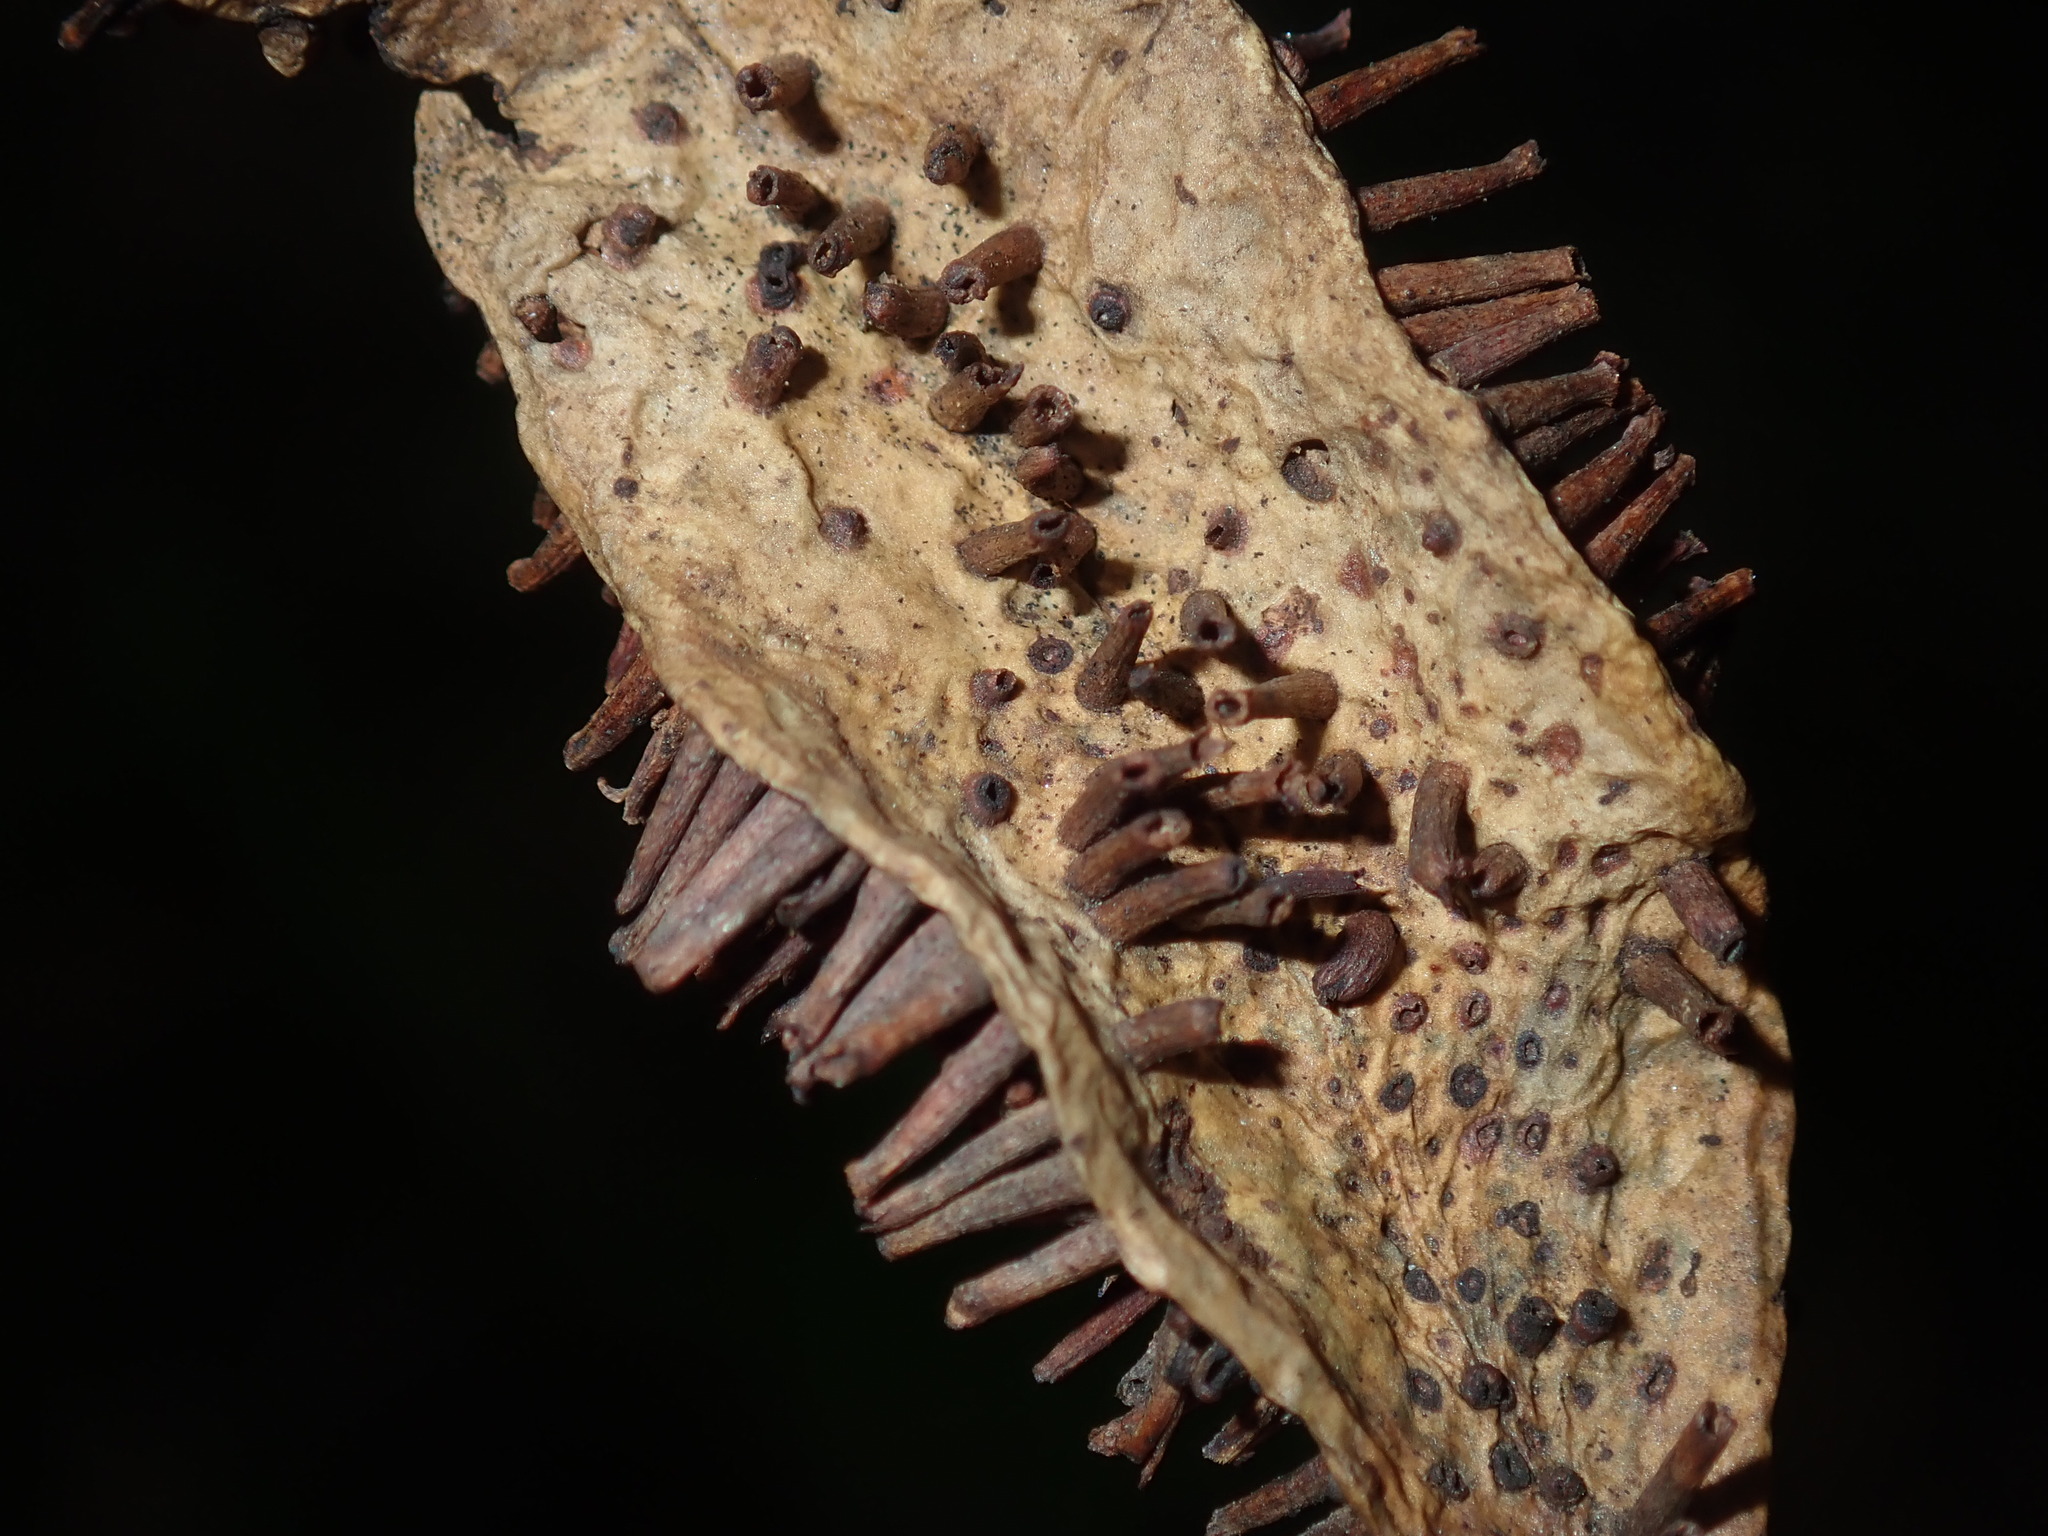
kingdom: Animalia
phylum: Arthropoda
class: Insecta
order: Hemiptera
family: Eriococcidae
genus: Apiomorpha
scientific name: Apiomorpha karschi
